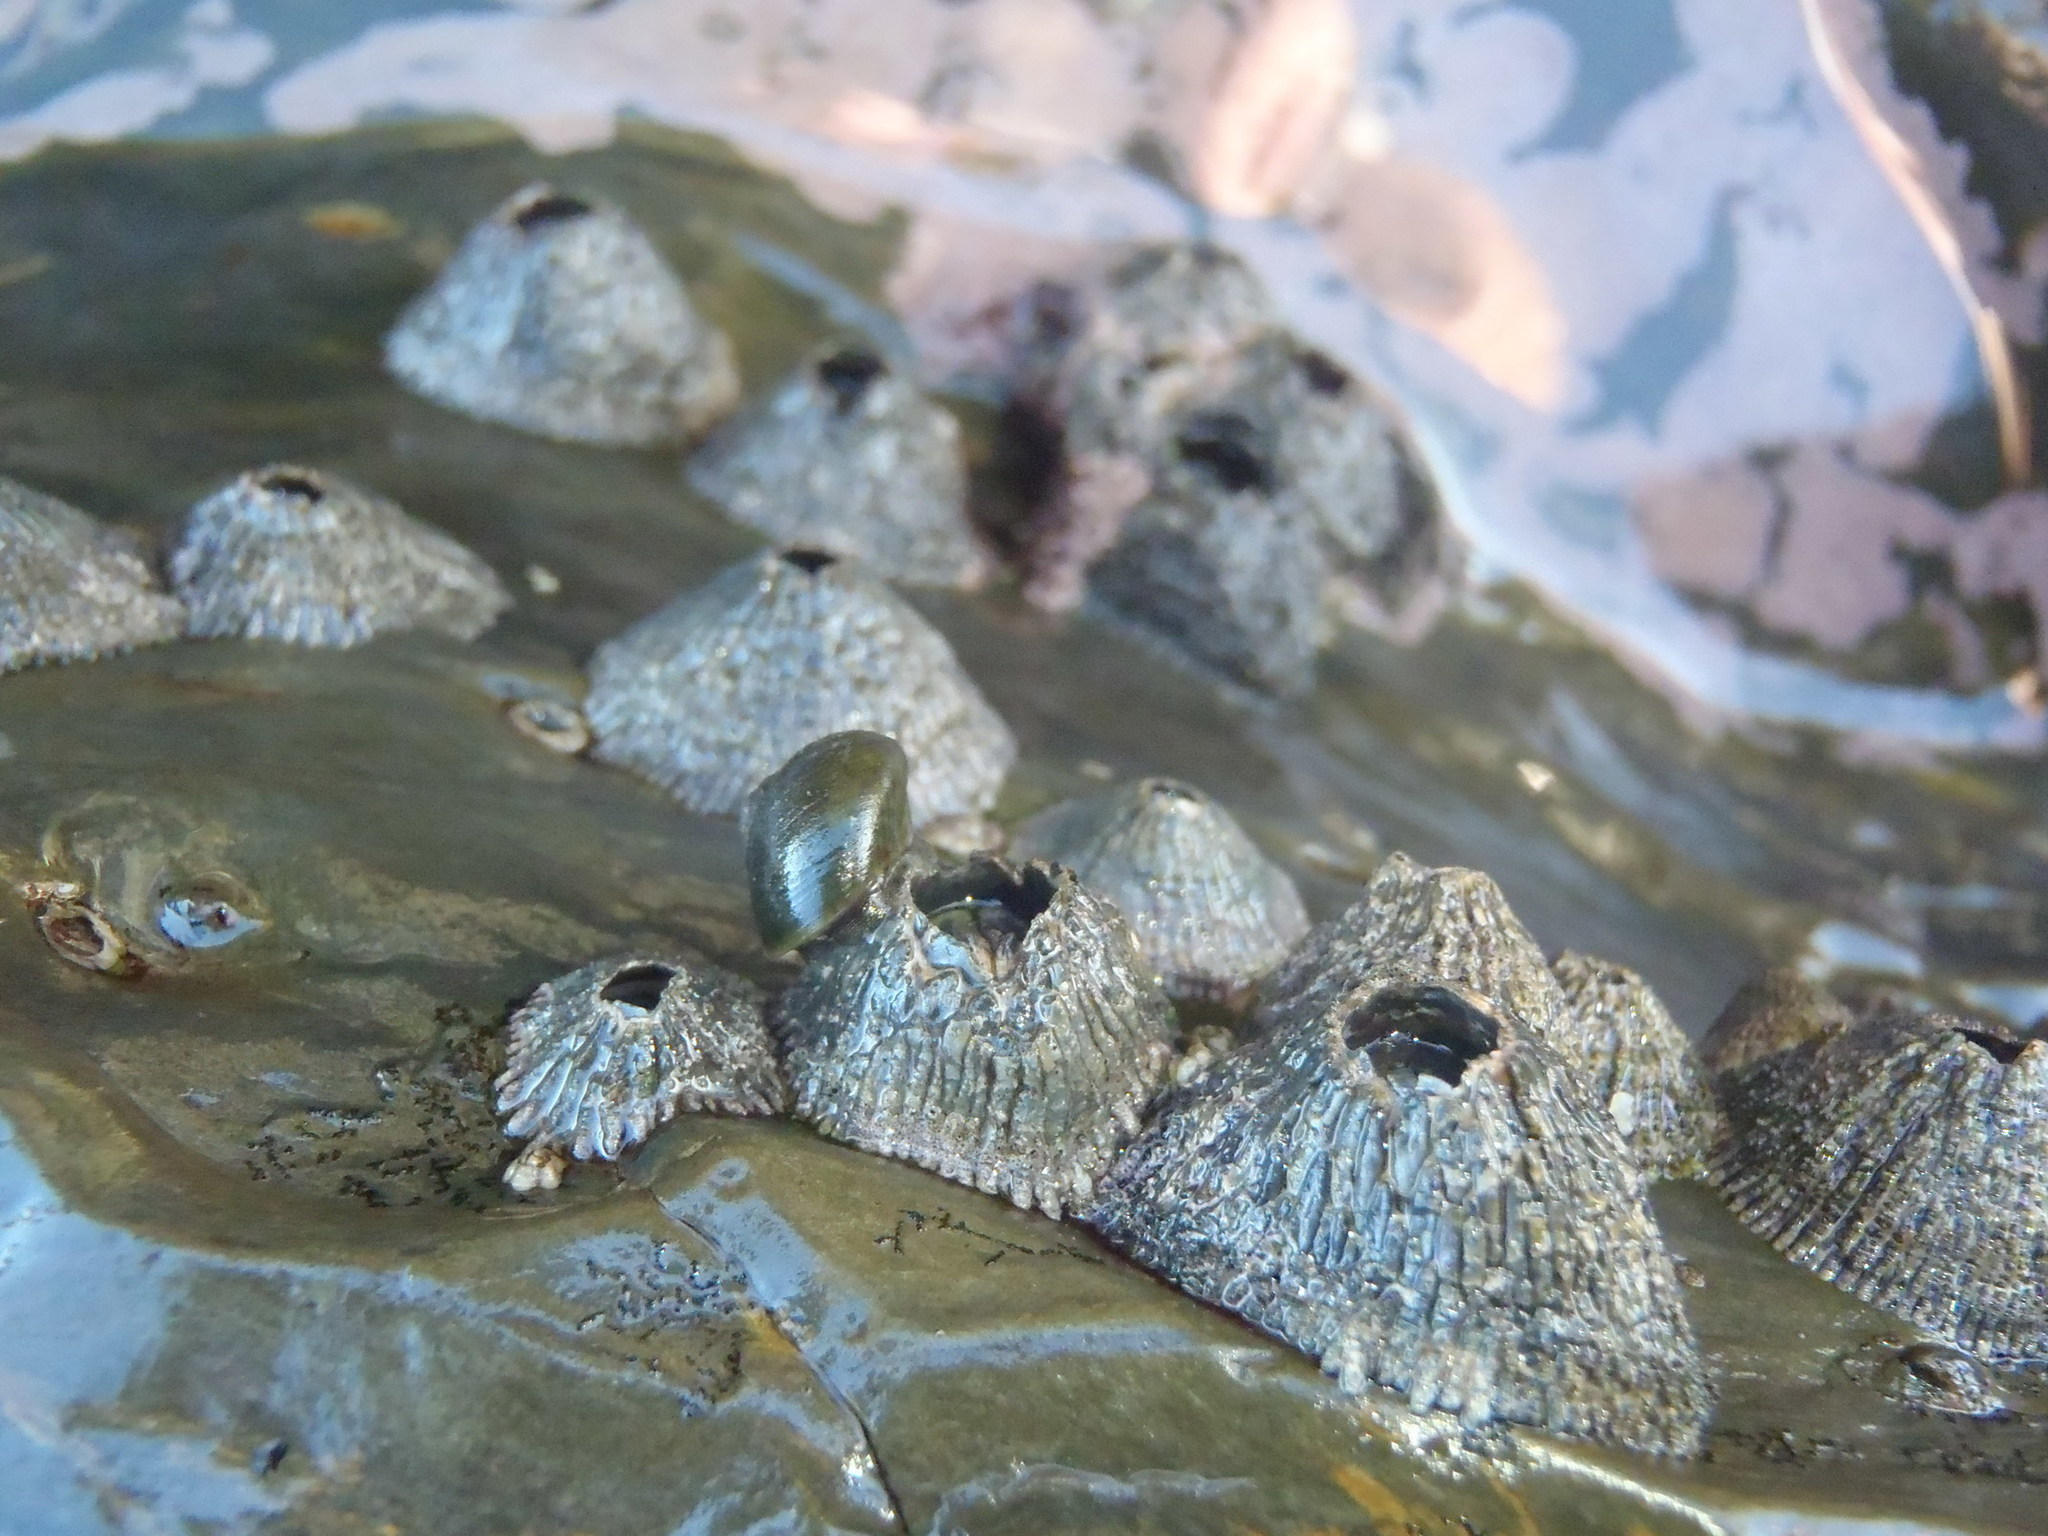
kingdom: Animalia
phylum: Arthropoda
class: Maxillopoda
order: Sessilia
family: Tetraclitidae
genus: Tetraclita
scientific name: Tetraclita serrata
